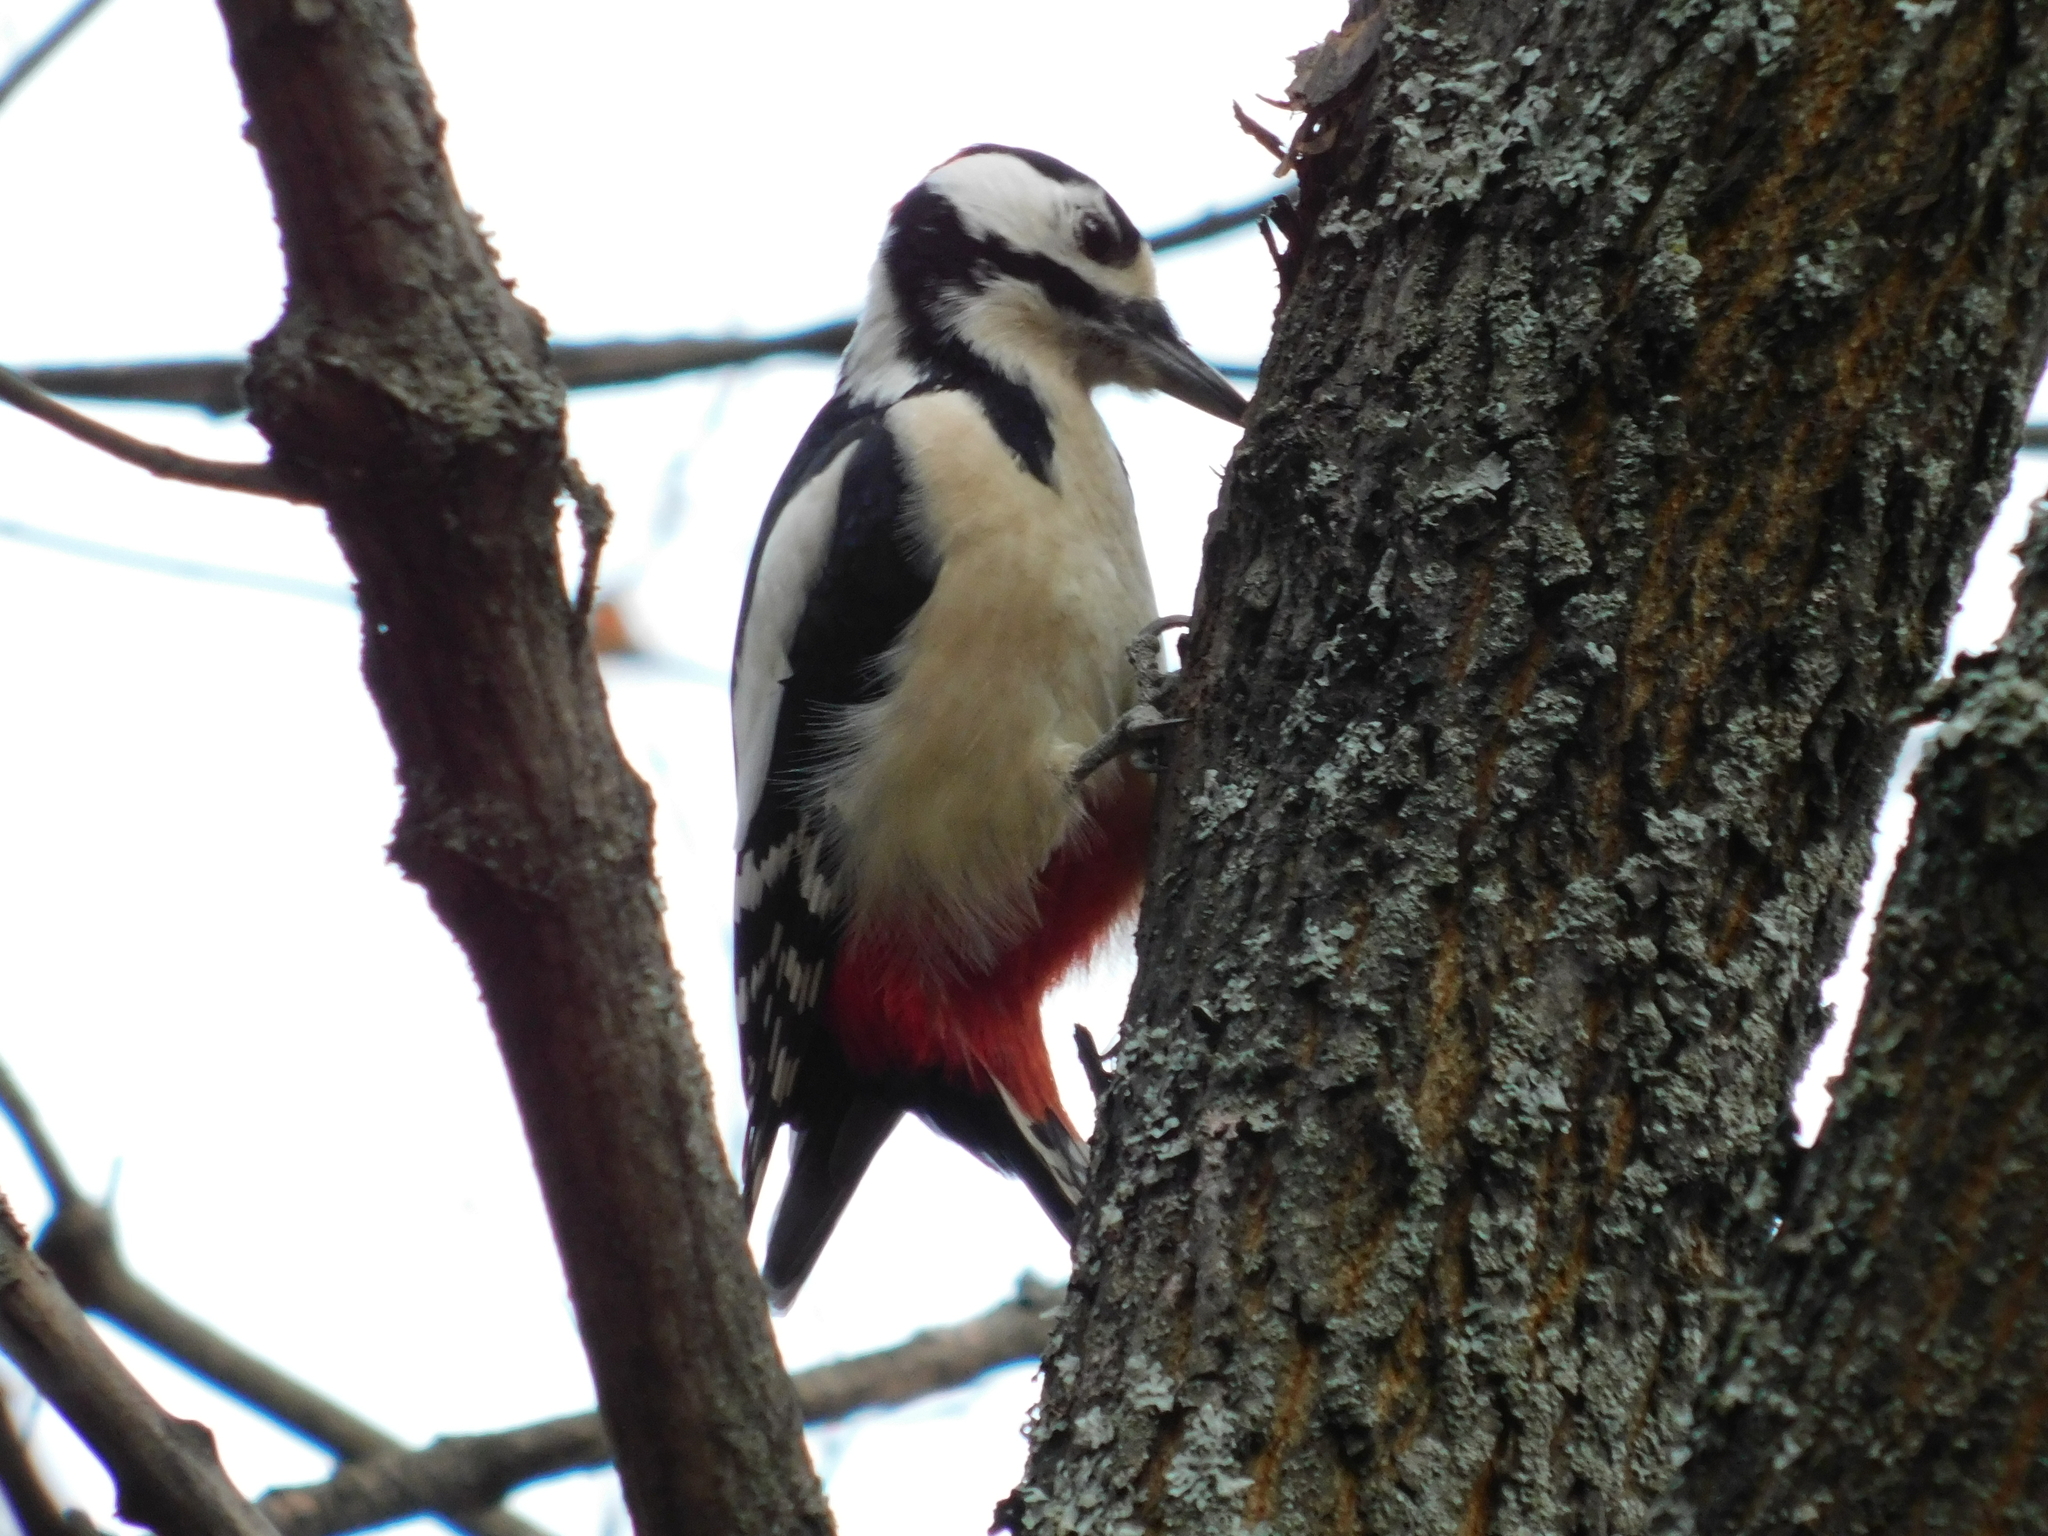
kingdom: Animalia
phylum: Chordata
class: Aves
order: Piciformes
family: Picidae
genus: Dendrocopos
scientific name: Dendrocopos major
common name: Great spotted woodpecker
